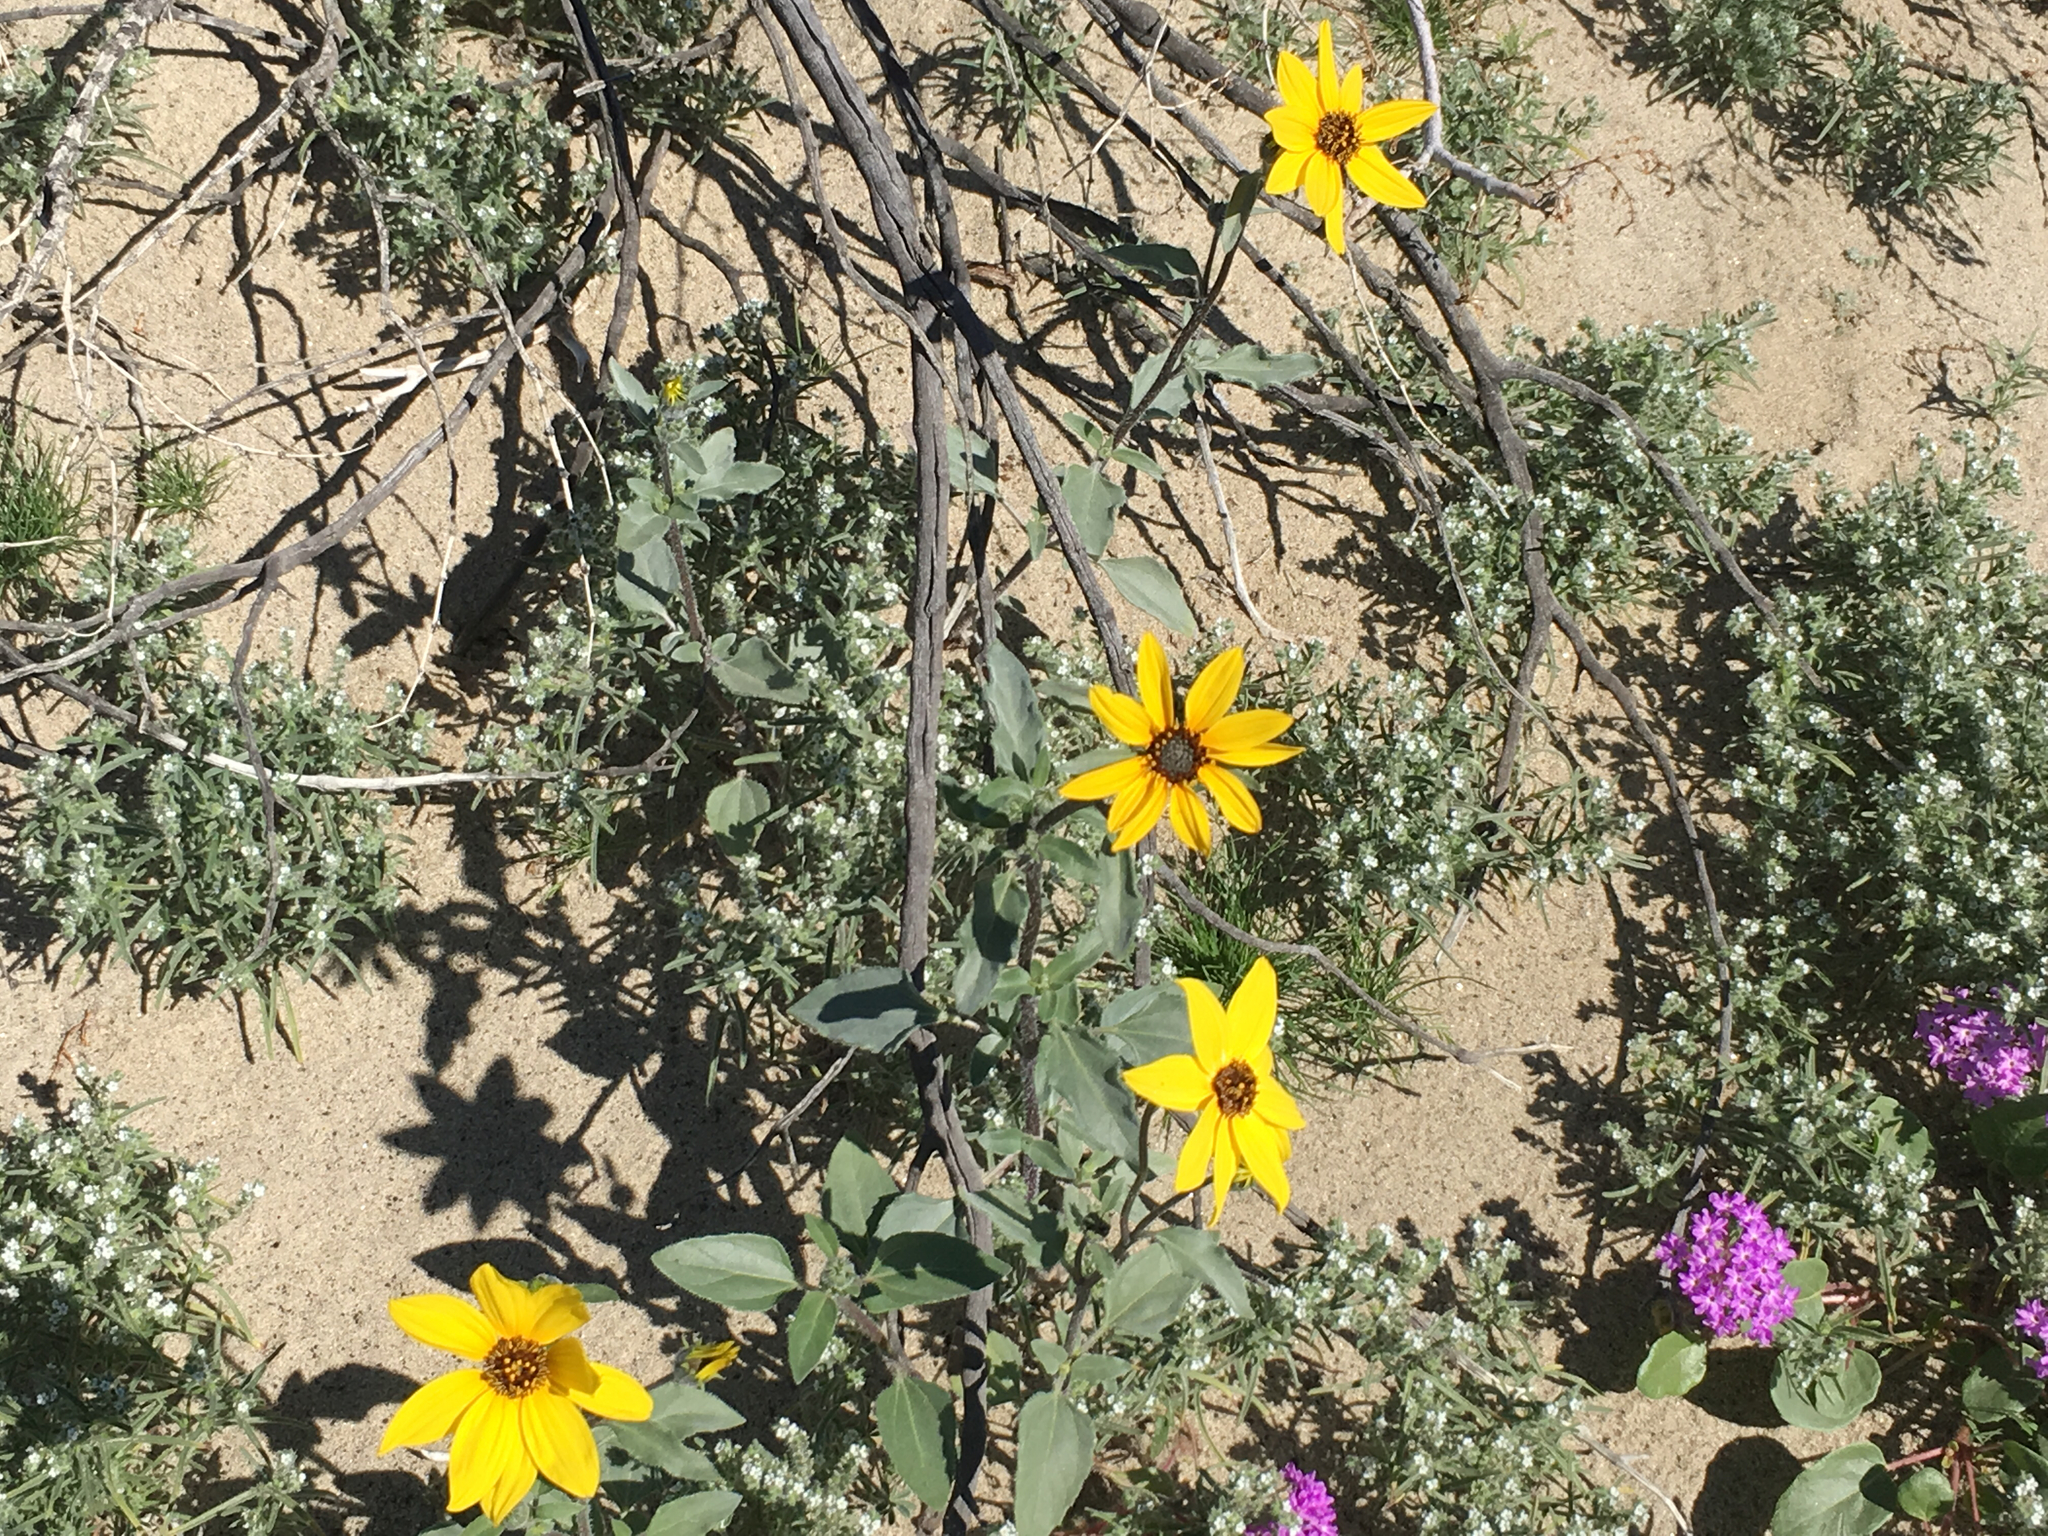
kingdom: Plantae
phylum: Tracheophyta
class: Magnoliopsida
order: Asterales
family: Asteraceae
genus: Helianthus
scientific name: Helianthus petiolaris
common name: Lesser sunflower
